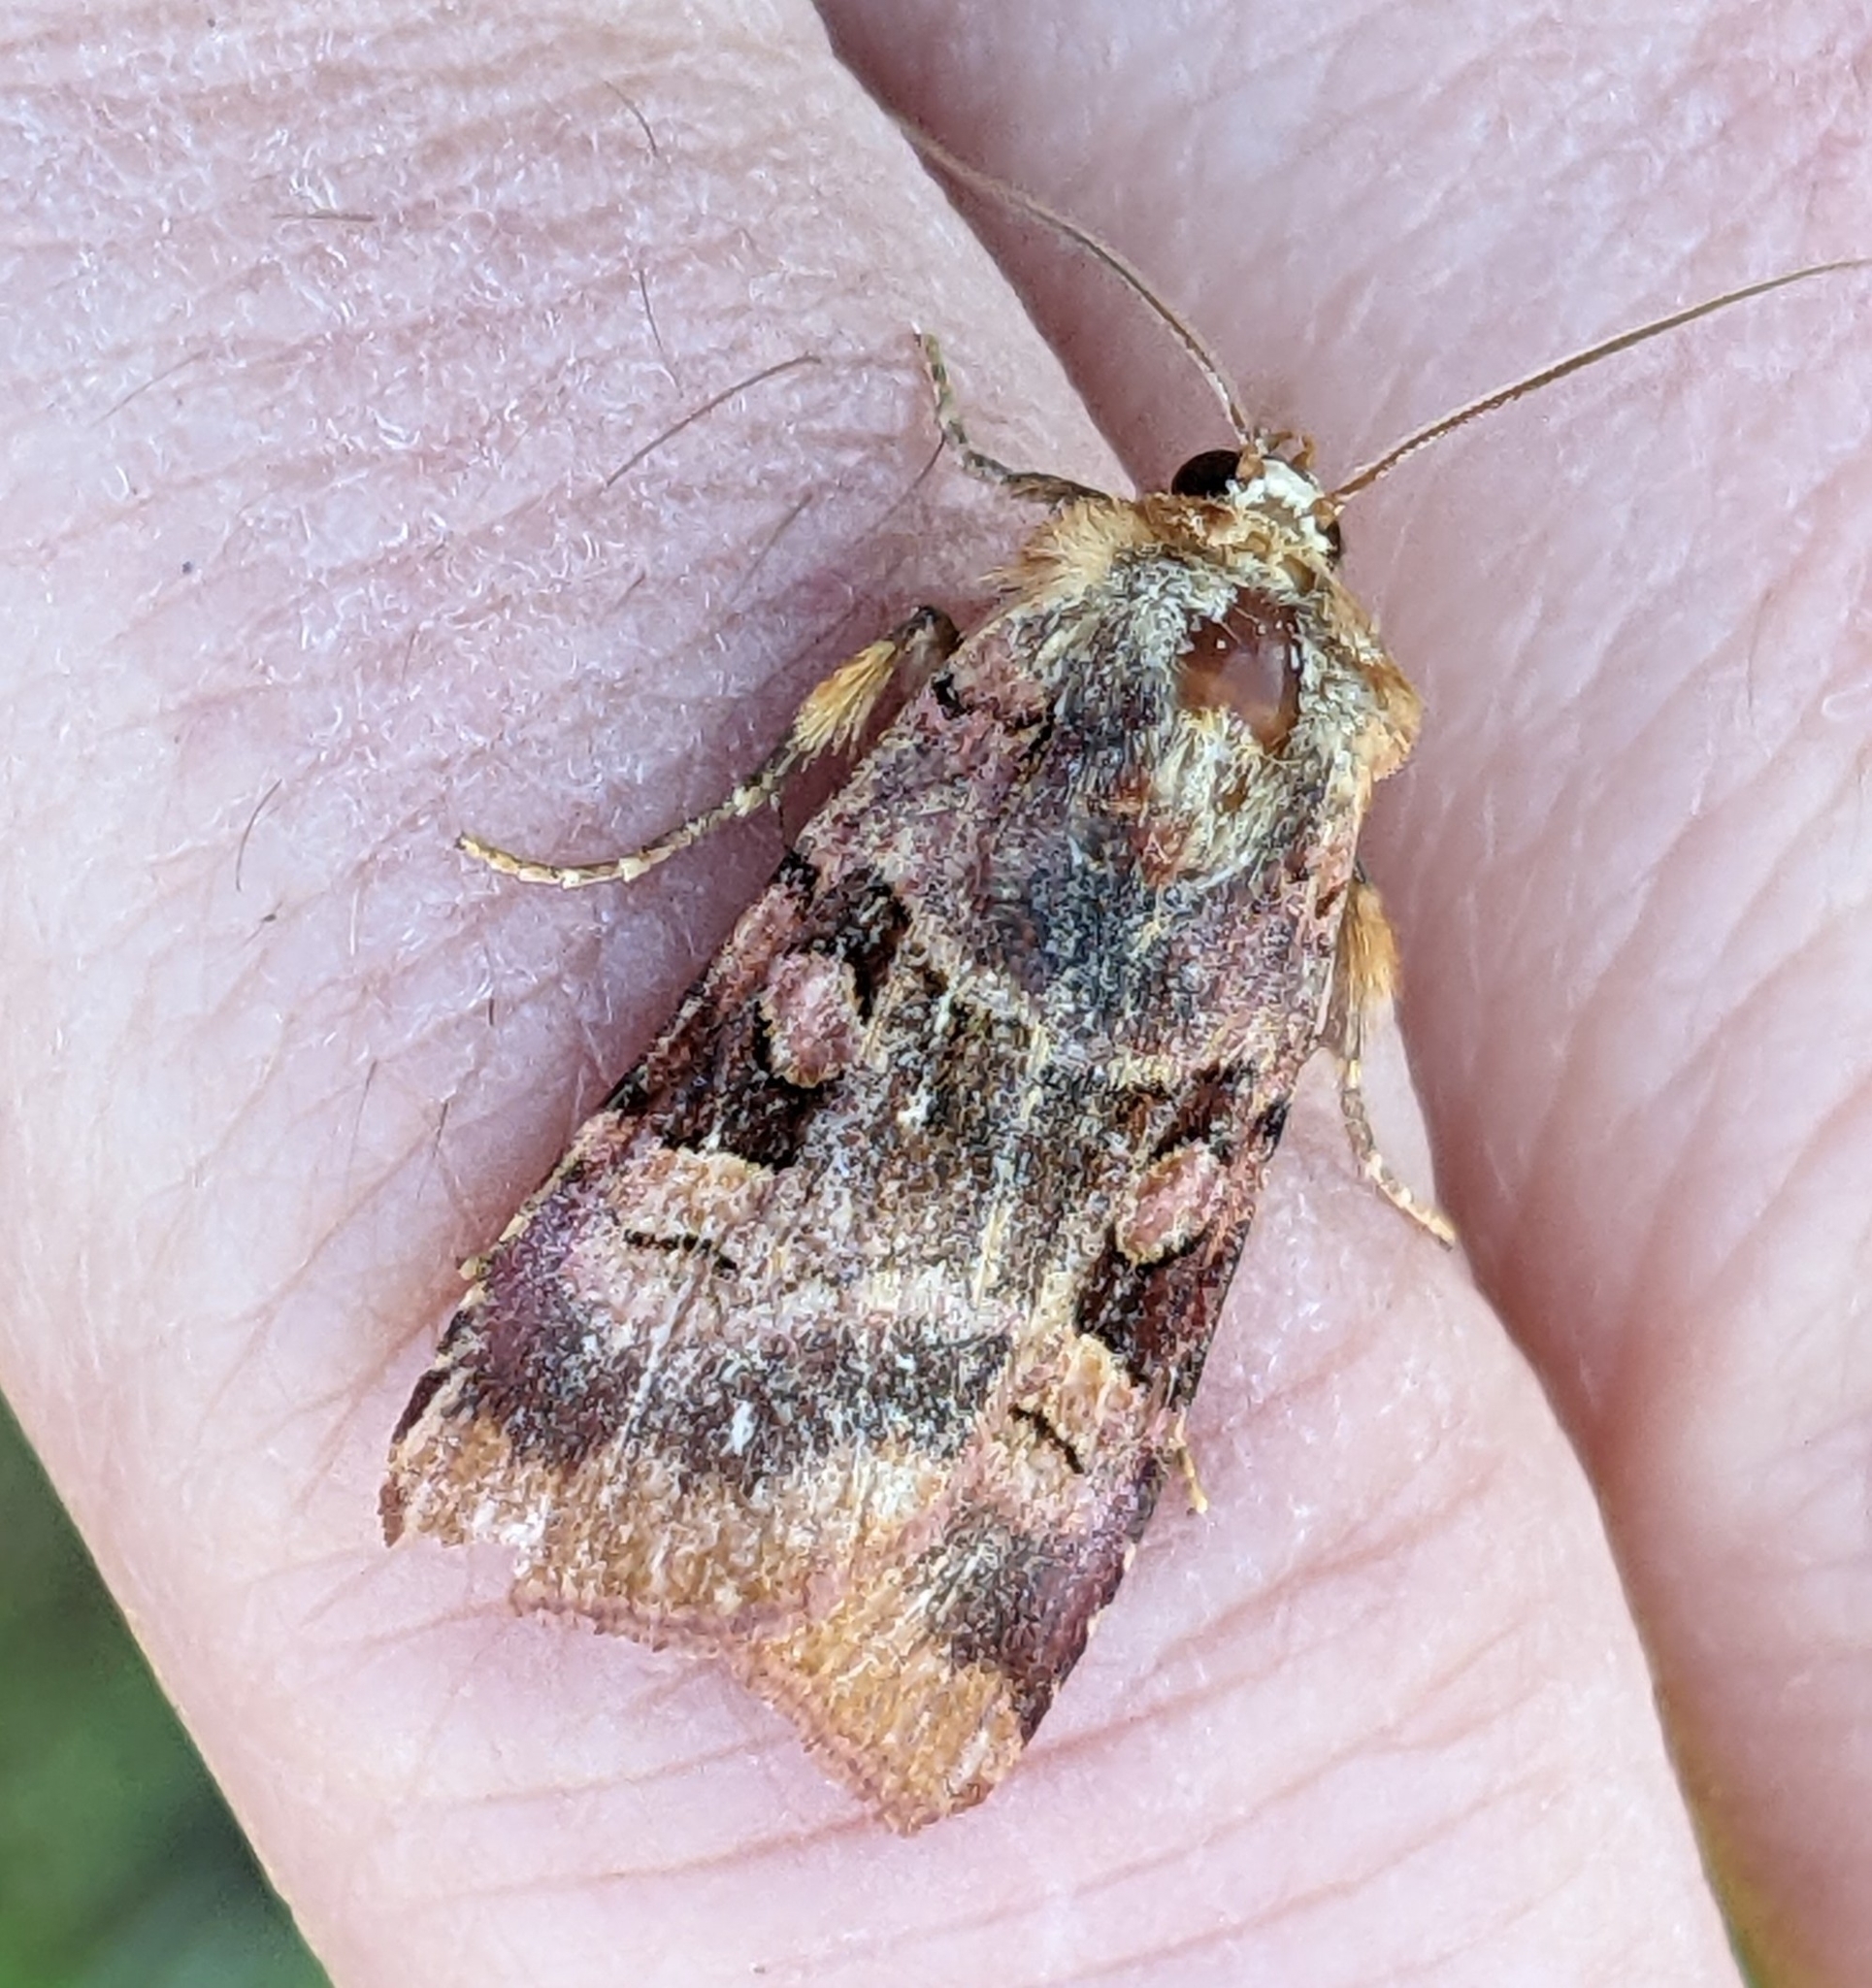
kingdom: Animalia
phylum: Arthropoda
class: Insecta
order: Lepidoptera
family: Noctuidae
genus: Xestia
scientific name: Xestia oblata
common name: Rosy dart
